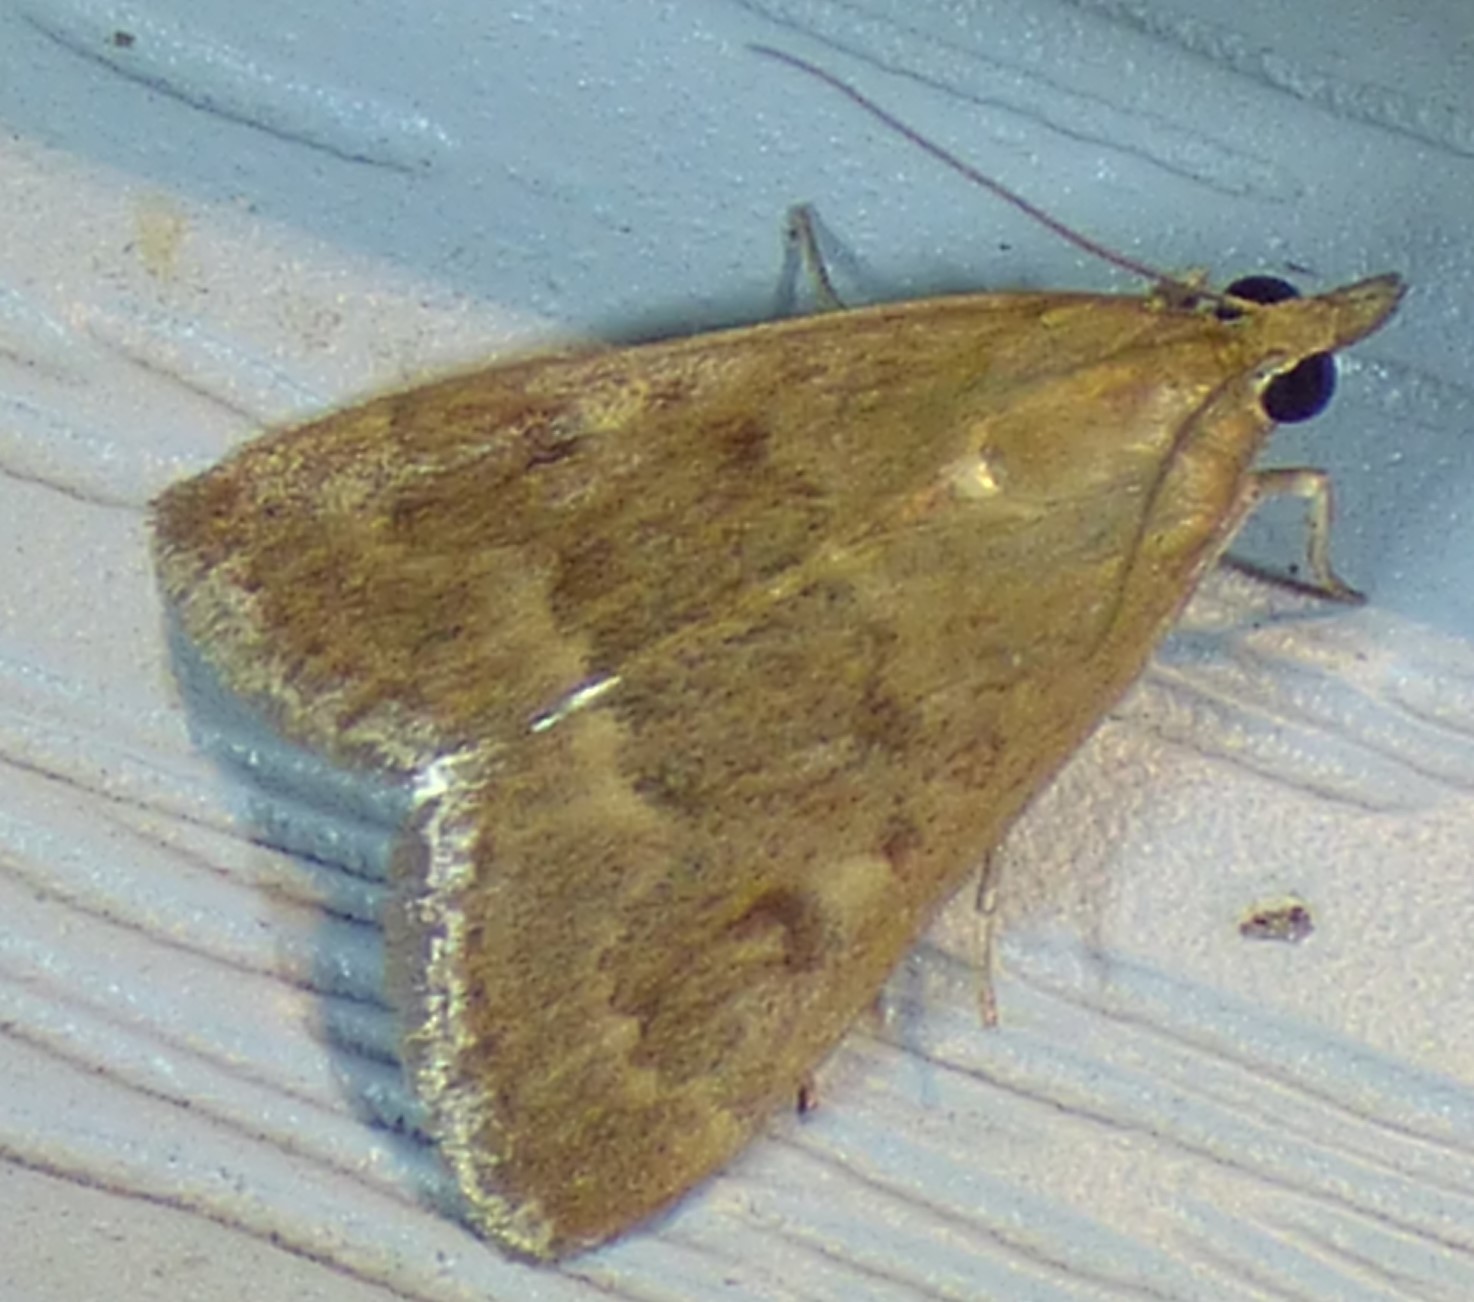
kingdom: Animalia
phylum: Arthropoda
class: Insecta
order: Lepidoptera
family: Crambidae
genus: Achyra
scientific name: Achyra rantalis
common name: Garden webworm
